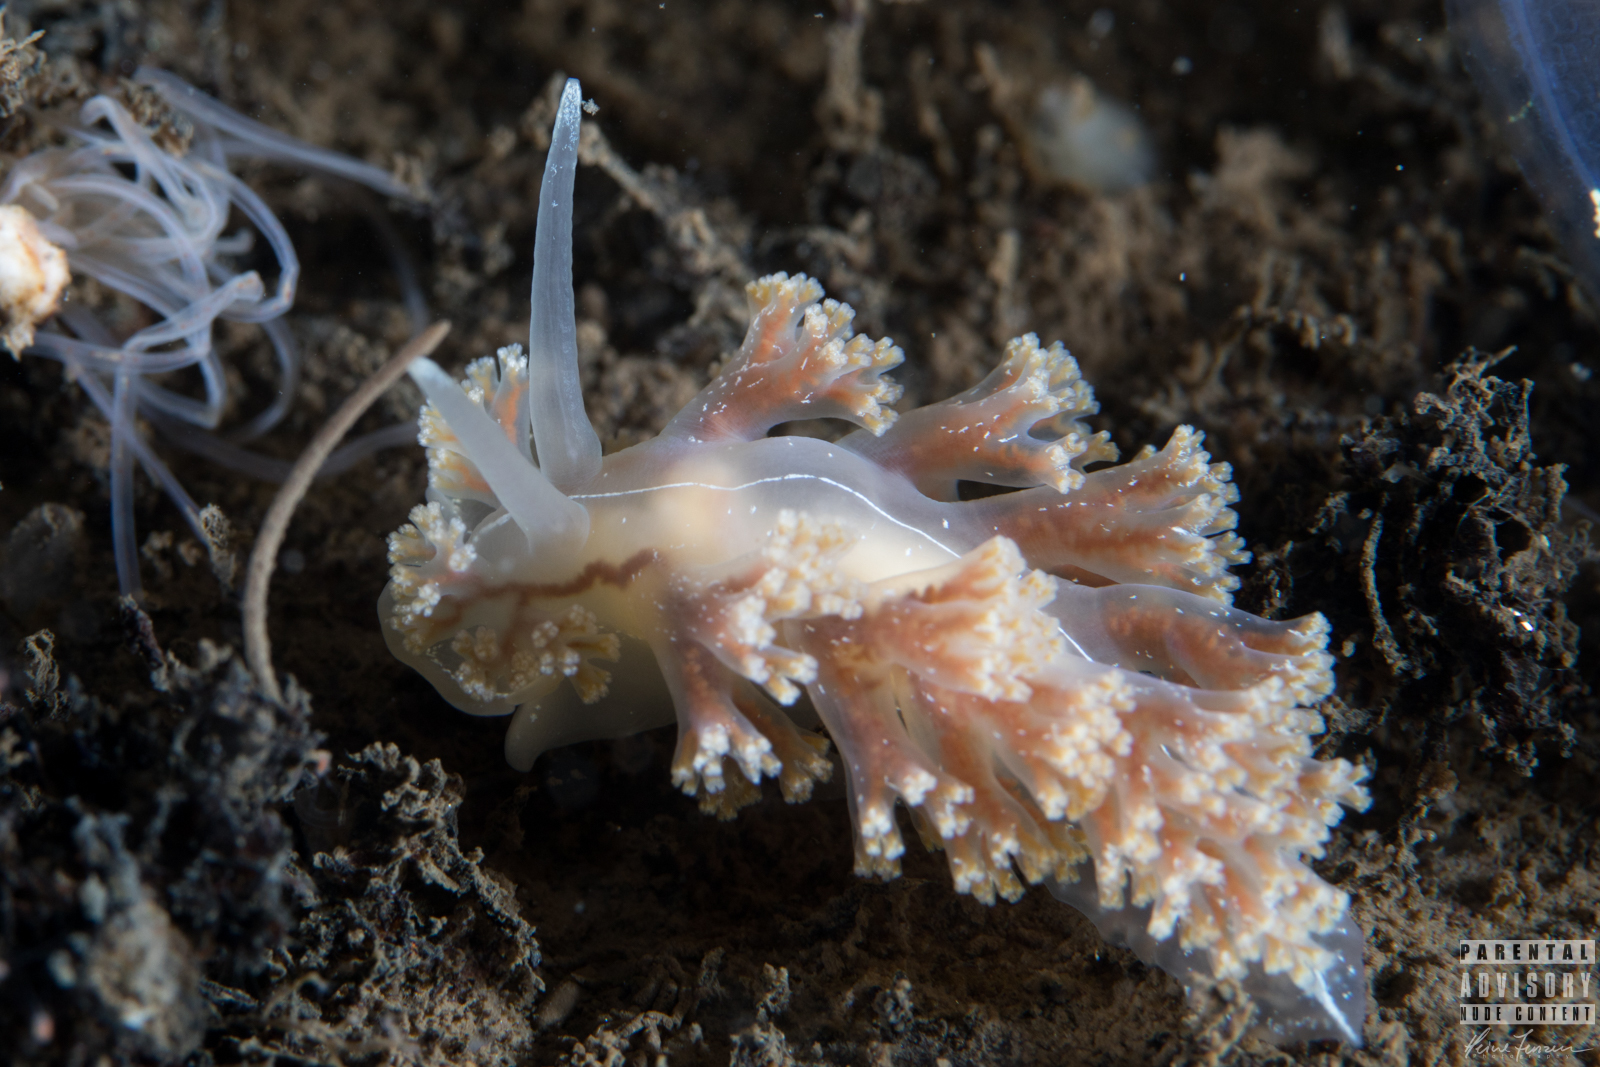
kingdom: Animalia
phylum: Mollusca
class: Gastropoda
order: Nudibranchia
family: Heroidae
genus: Hero
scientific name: Hero formosa
